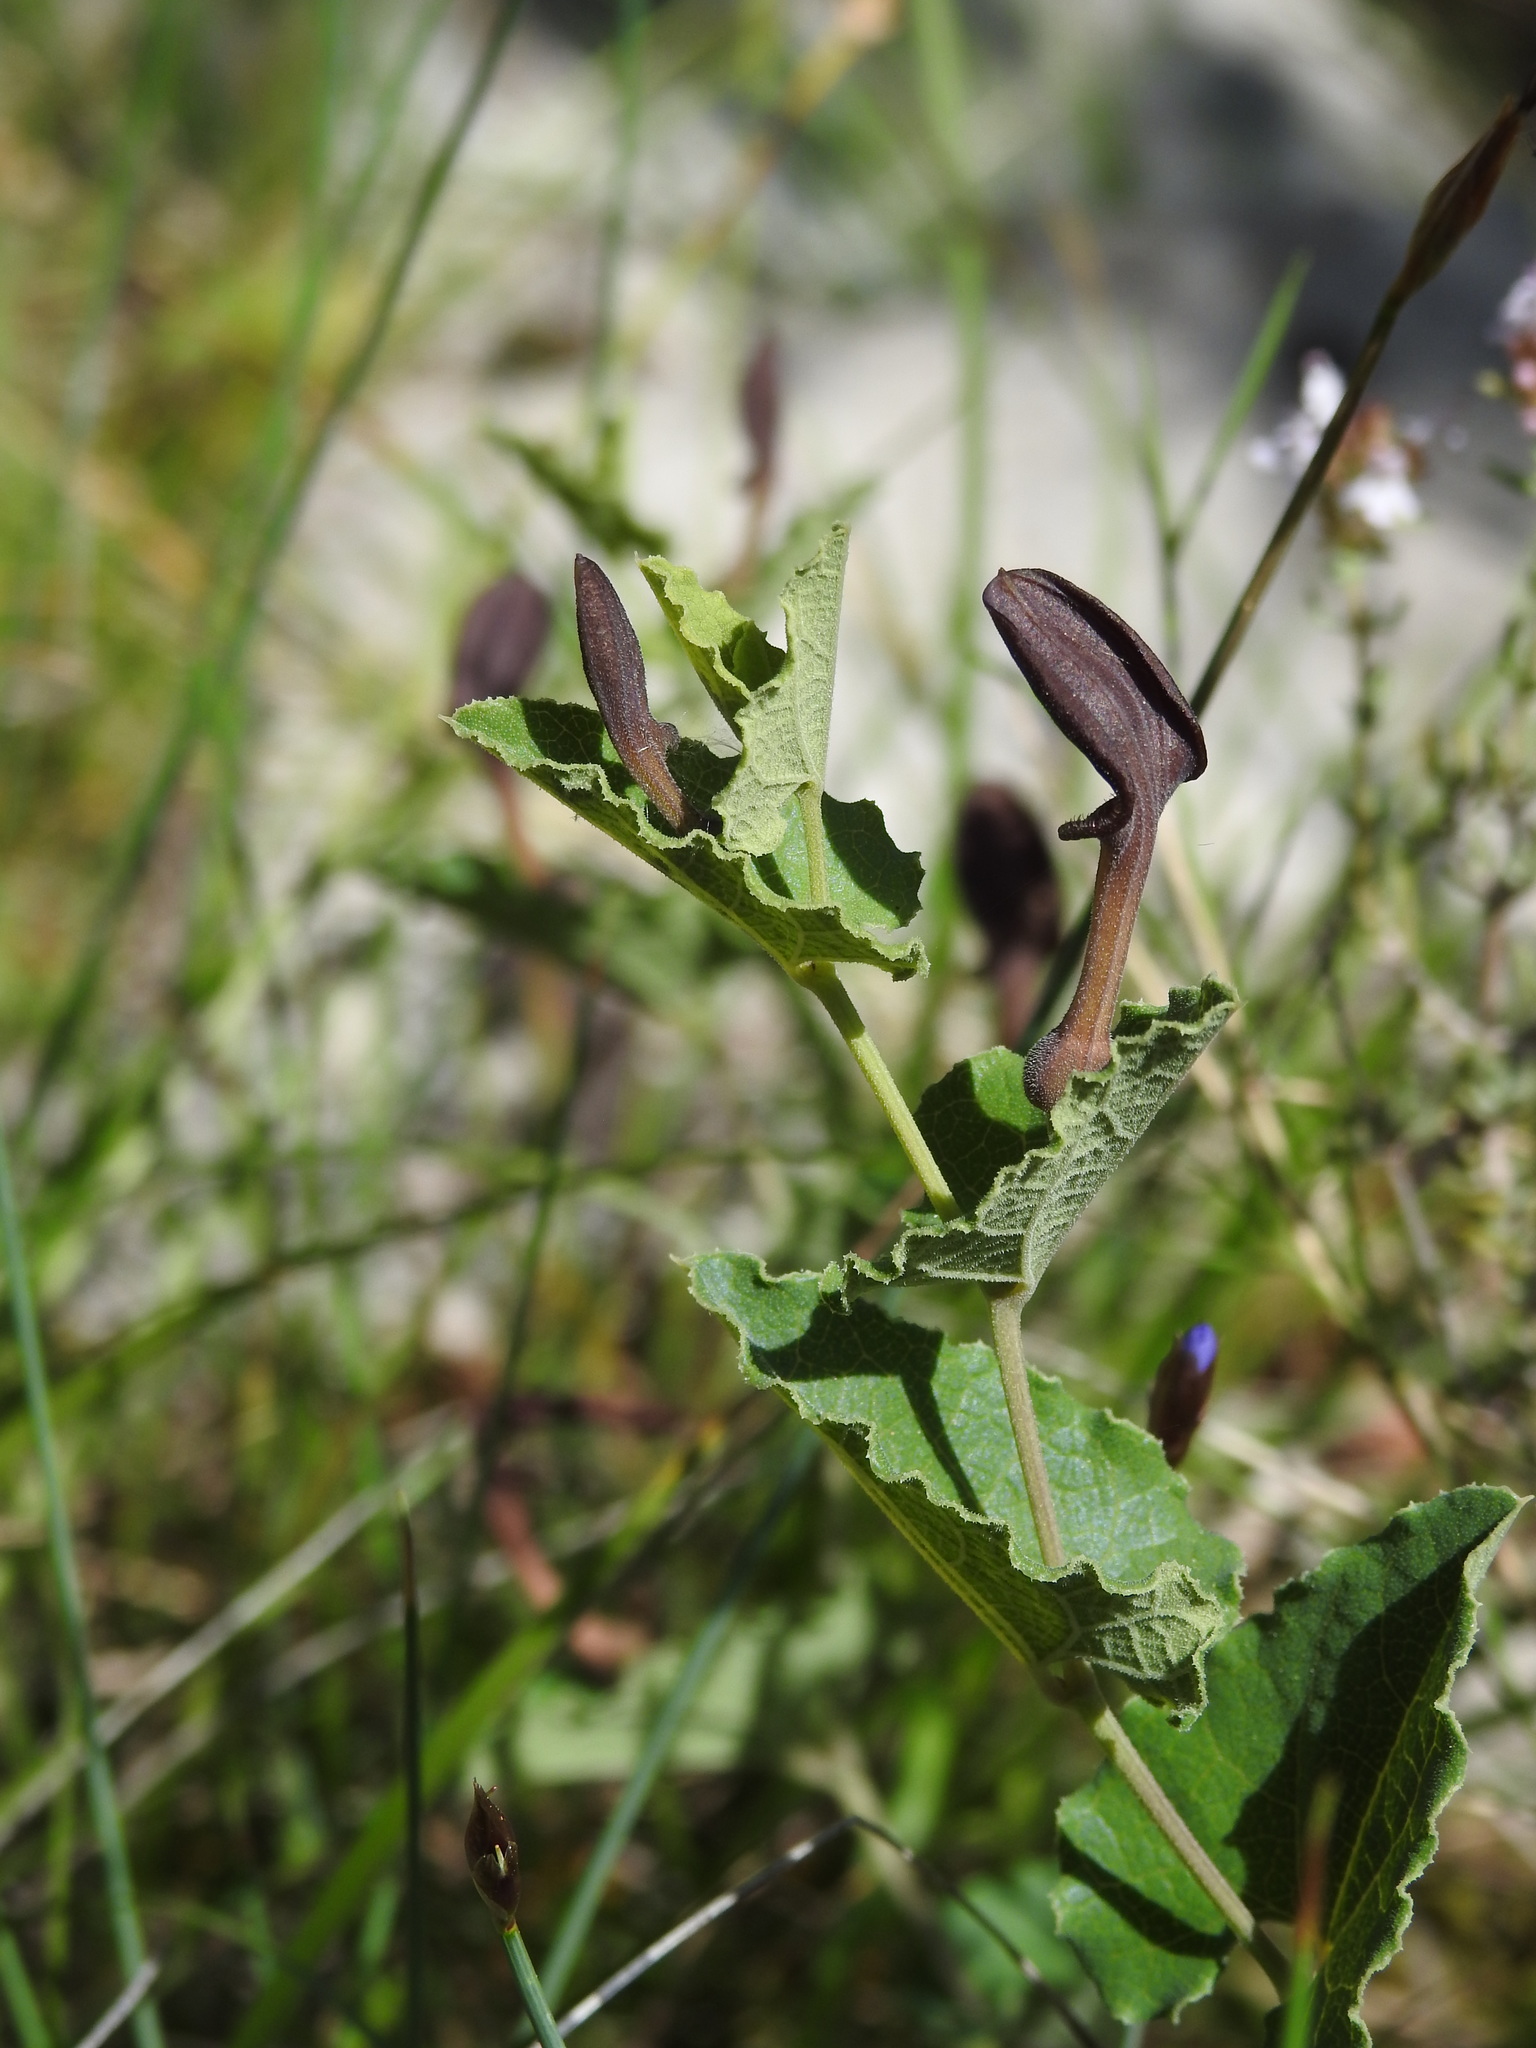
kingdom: Plantae
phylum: Tracheophyta
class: Magnoliopsida
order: Piperales
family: Aristolochiaceae
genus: Aristolochia
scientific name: Aristolochia pistolochia
